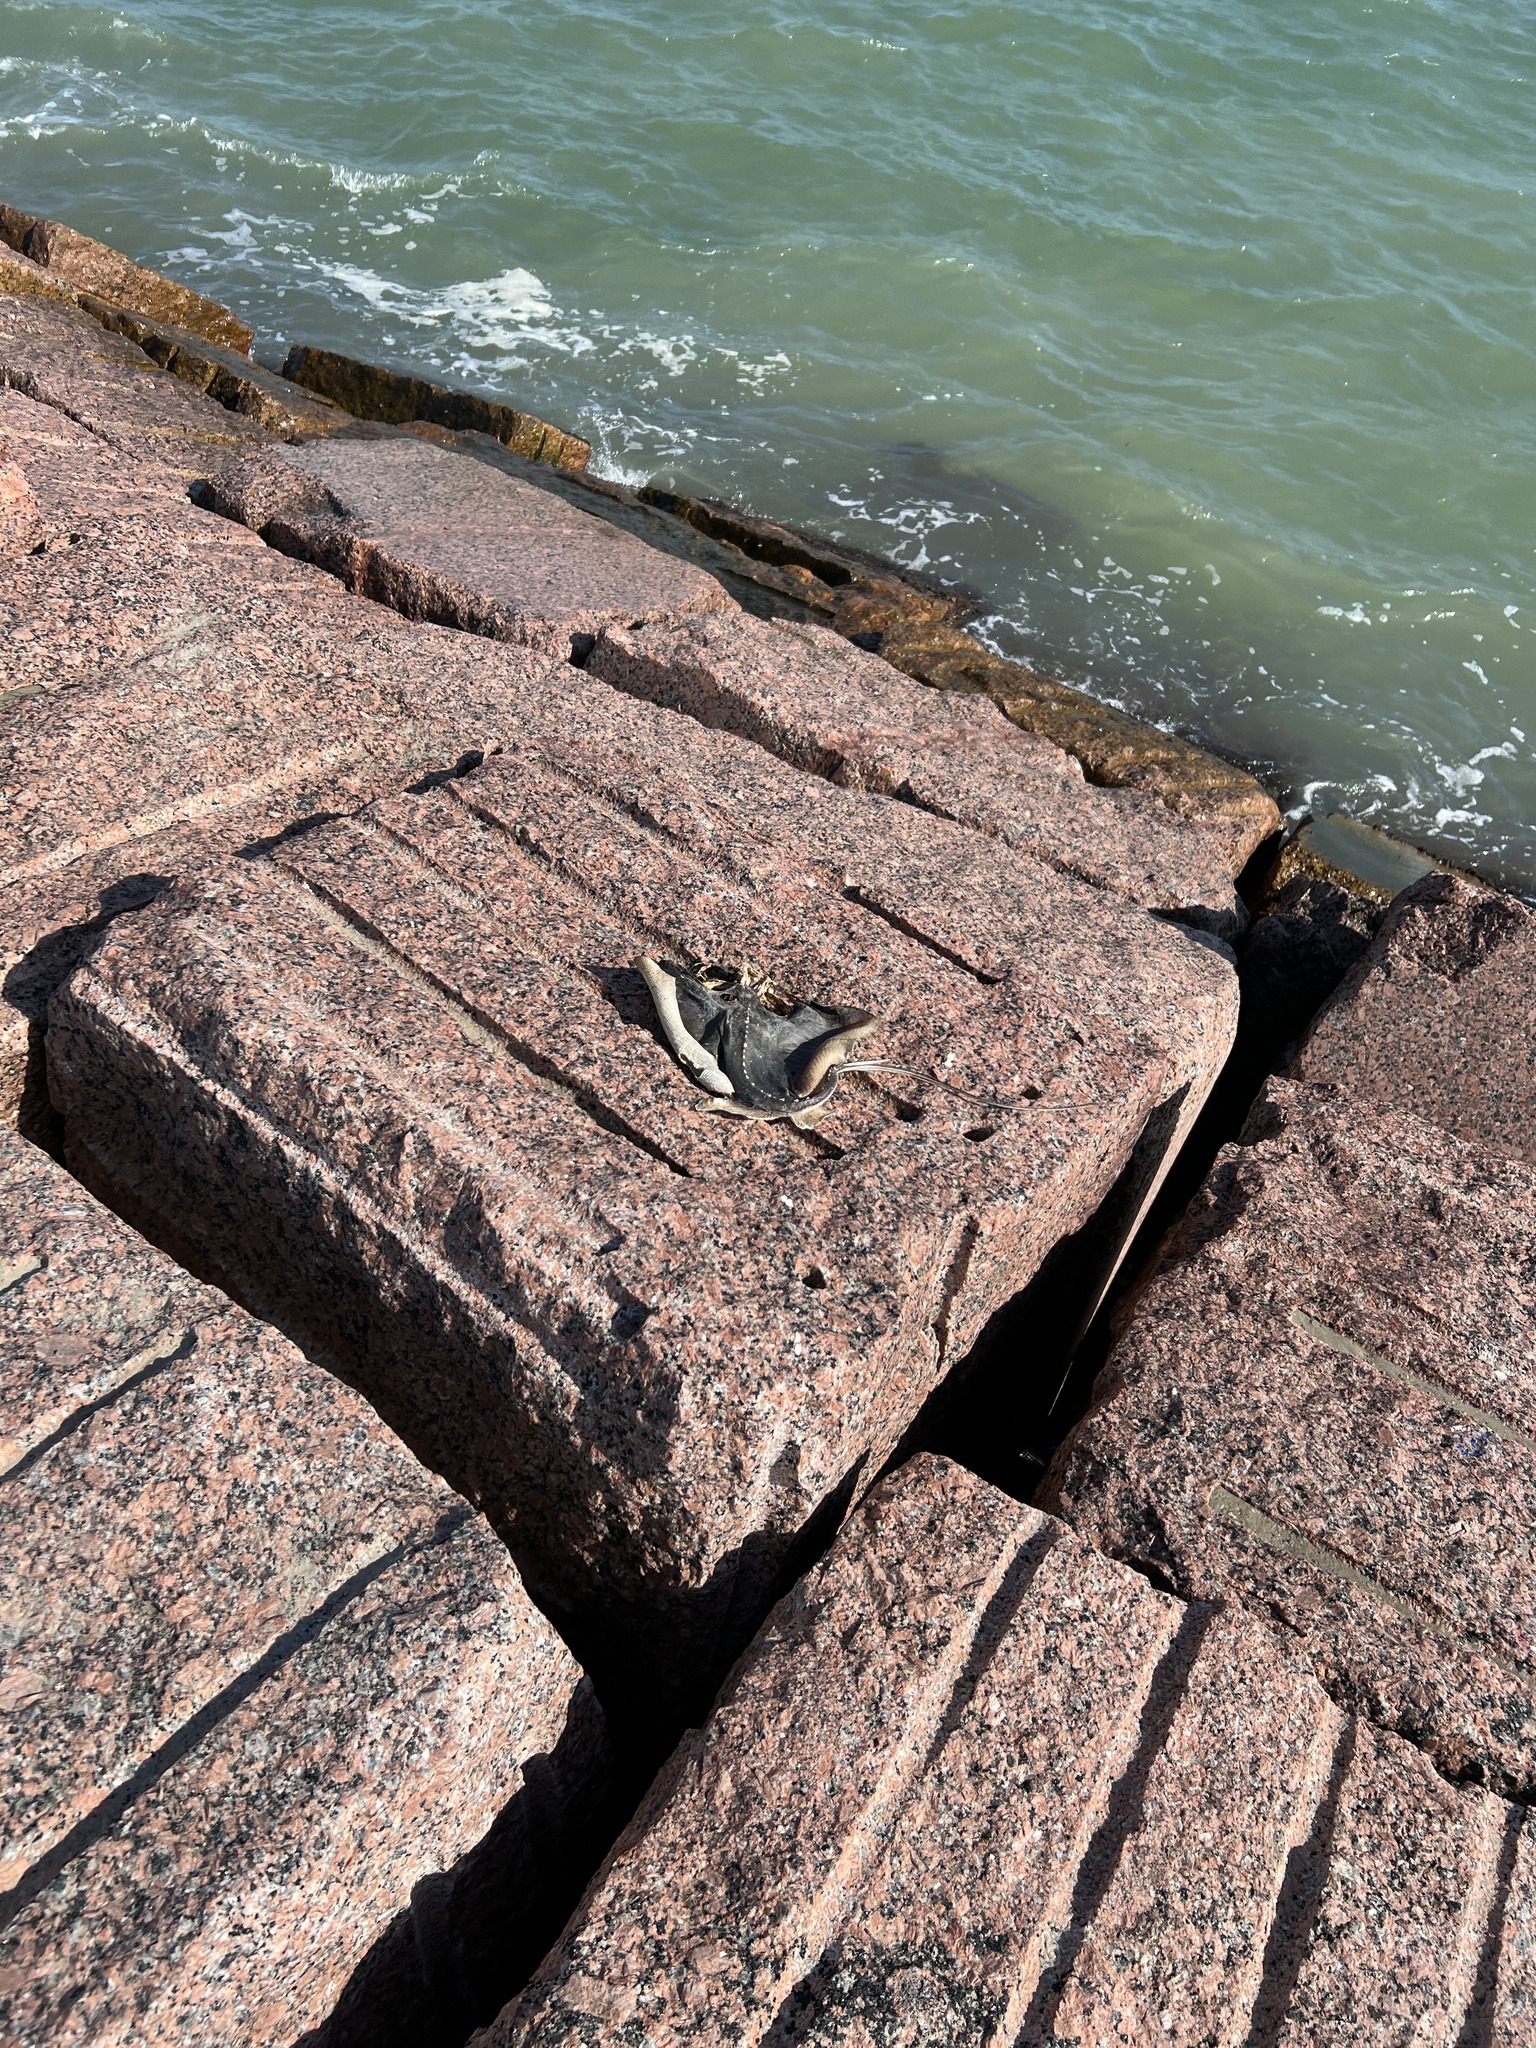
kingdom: Animalia
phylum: Chordata
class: Elasmobranchii
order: Myliobatiformes
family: Dasyatidae
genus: Hypanus
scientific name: Hypanus sabinus
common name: Atlantic stingray
